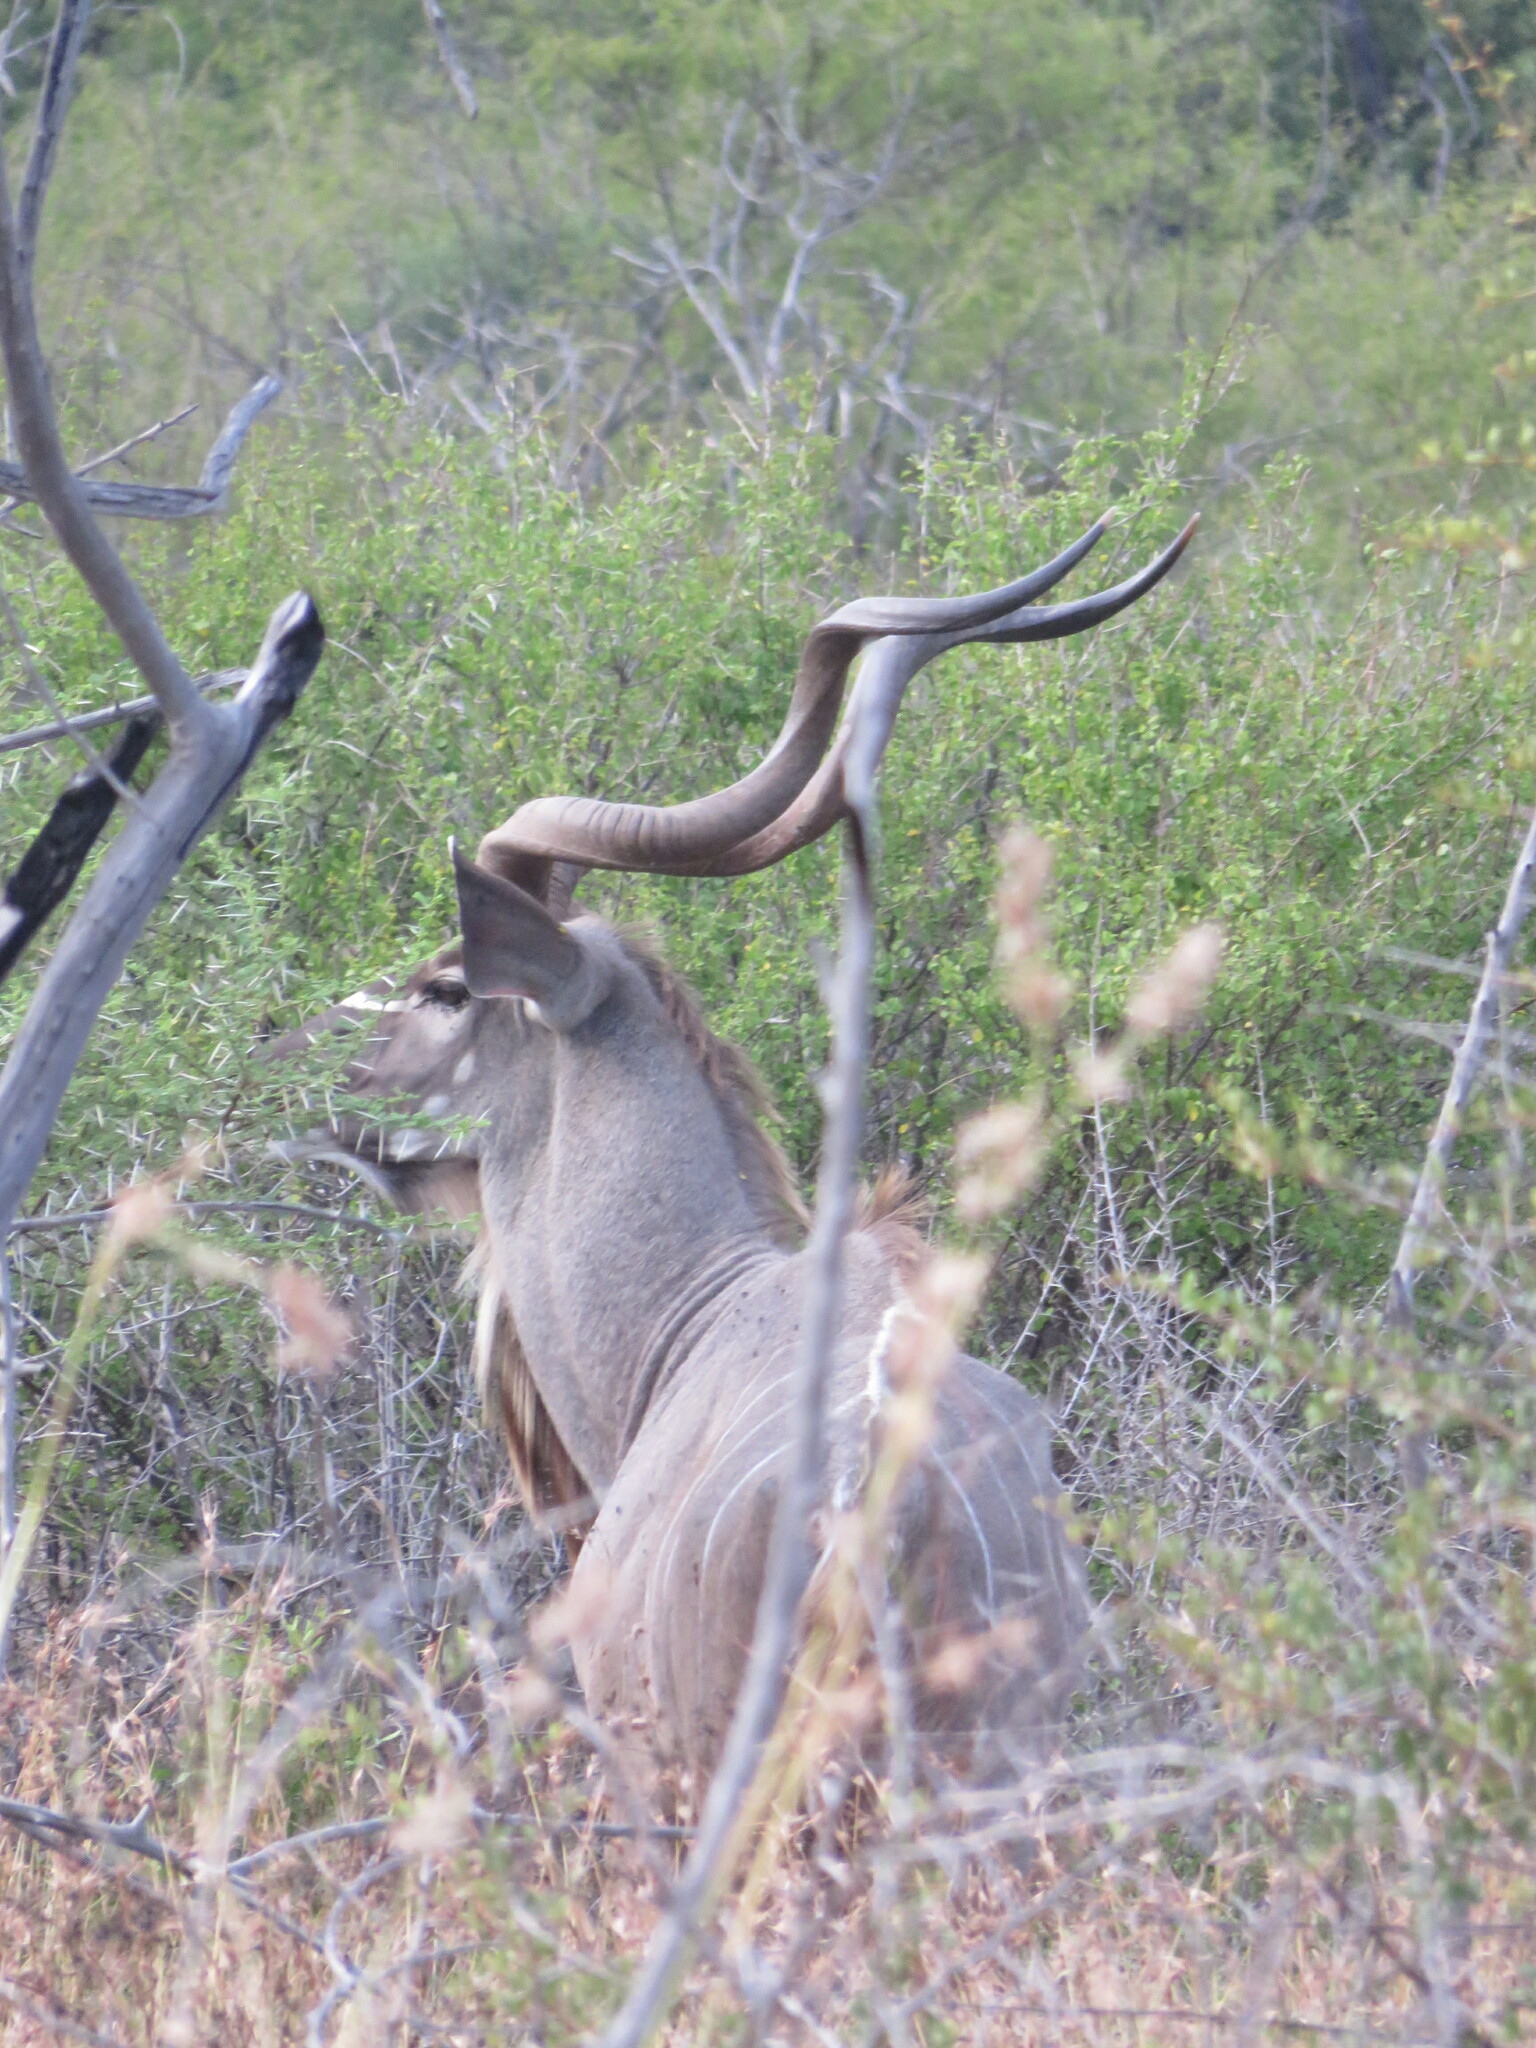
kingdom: Animalia
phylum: Chordata
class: Mammalia
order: Artiodactyla
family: Bovidae
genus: Tragelaphus
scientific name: Tragelaphus strepsiceros
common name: Greater kudu
